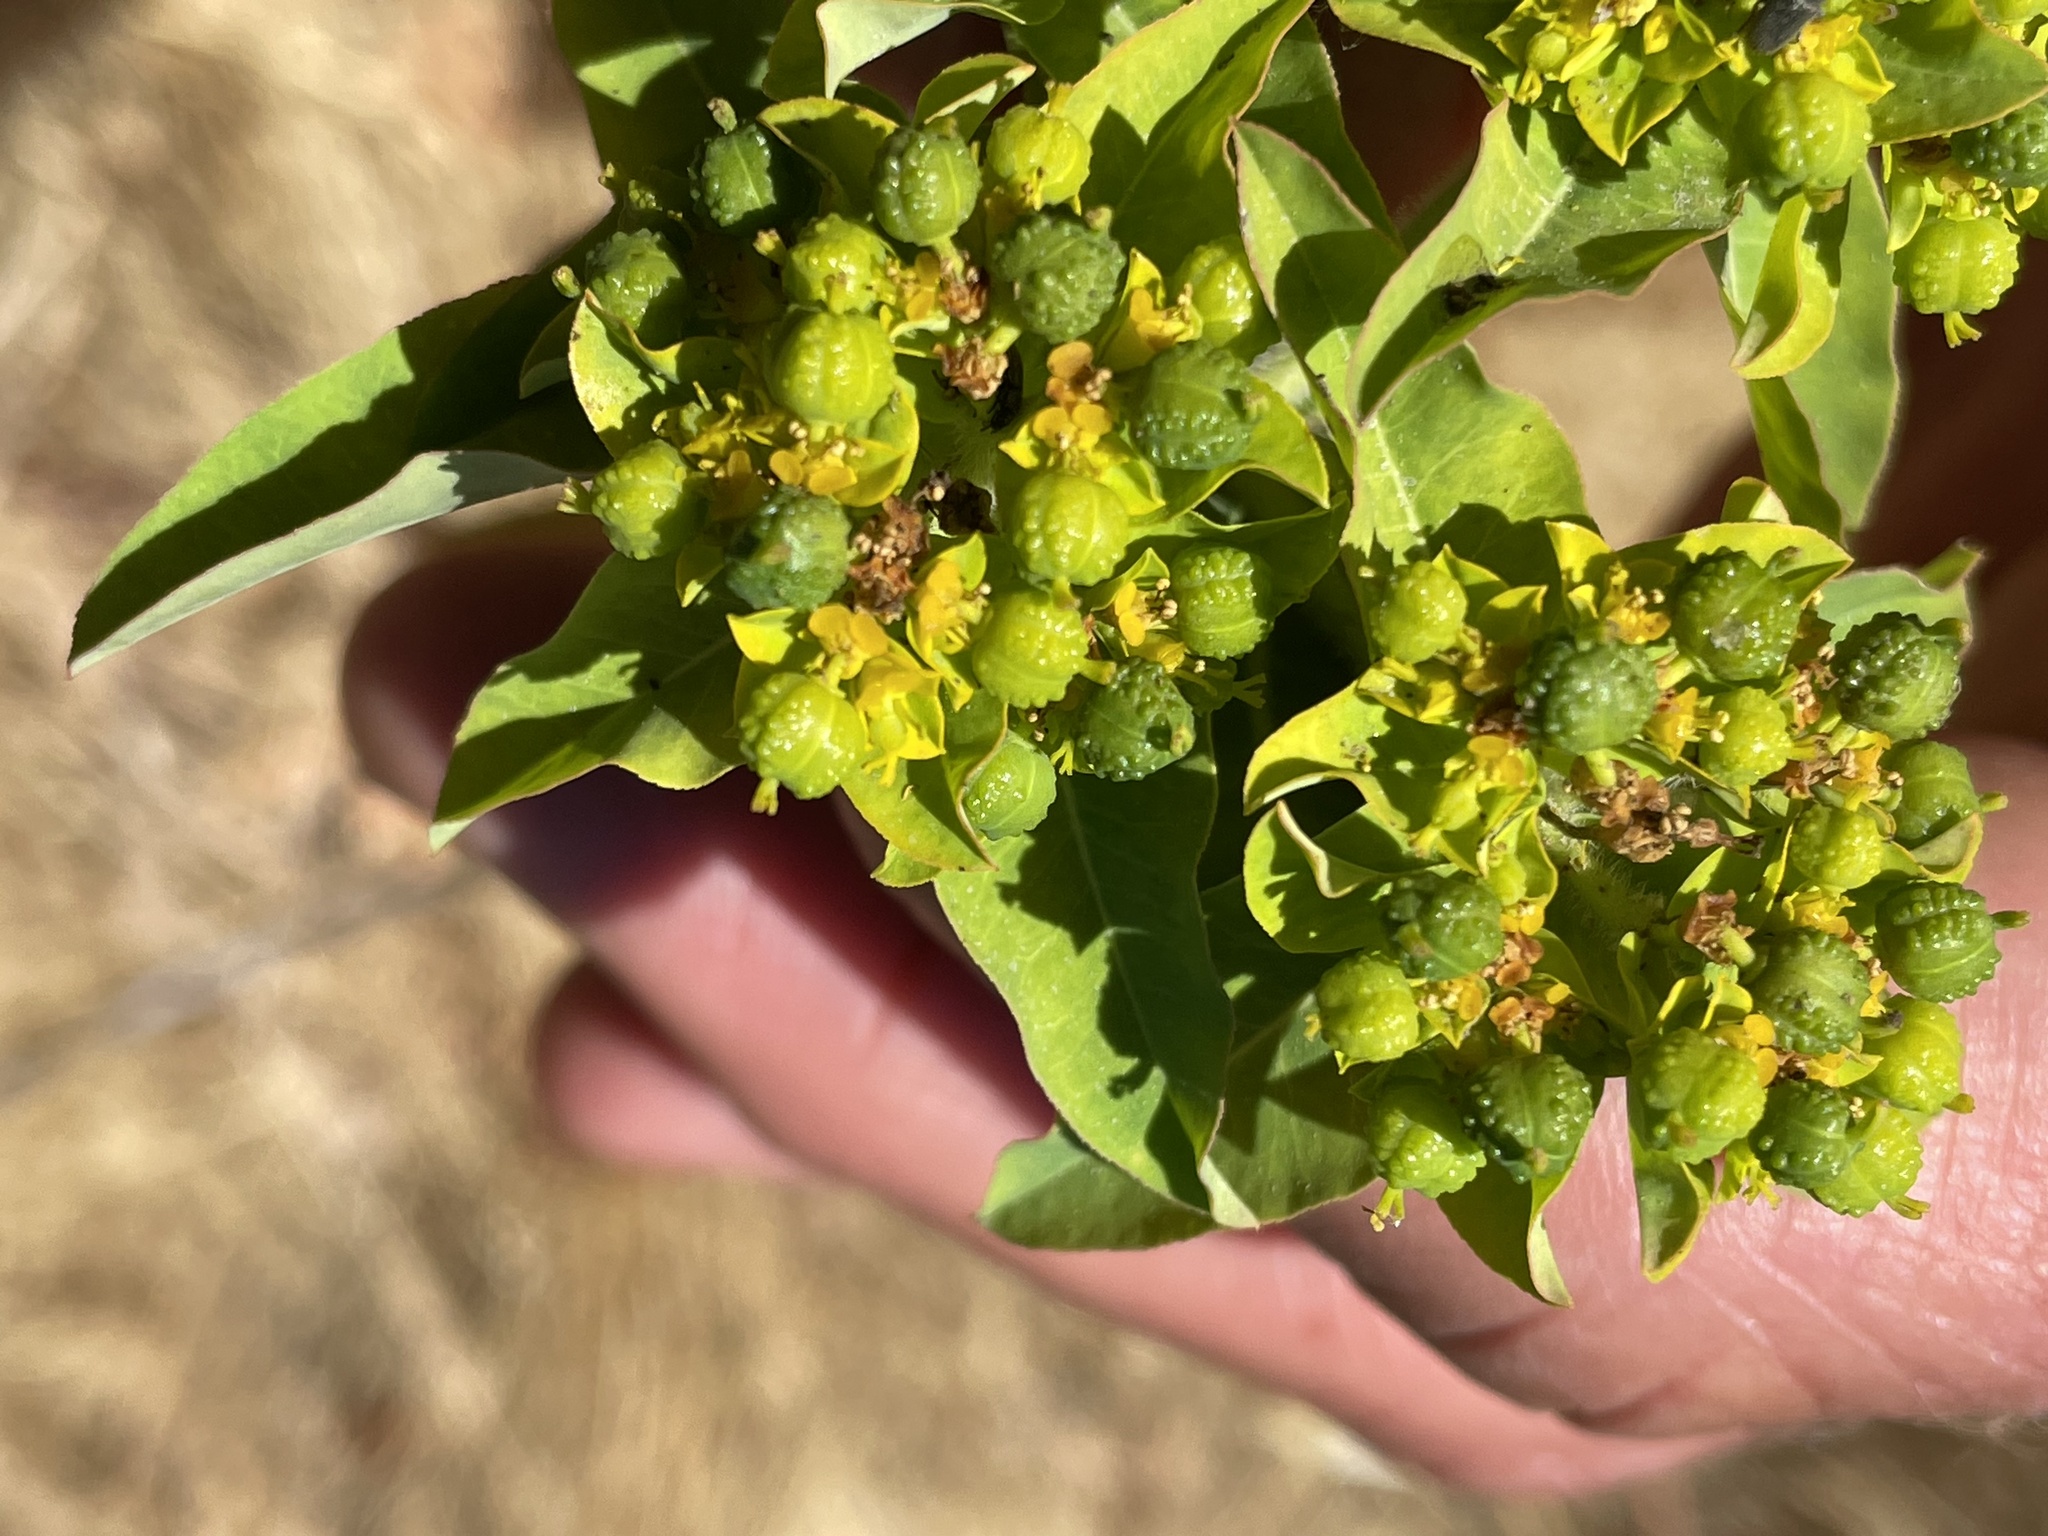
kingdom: Plantae
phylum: Tracheophyta
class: Magnoliopsida
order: Malpighiales
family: Euphorbiaceae
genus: Euphorbia
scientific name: Euphorbia oblongata
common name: Balkan spurge
